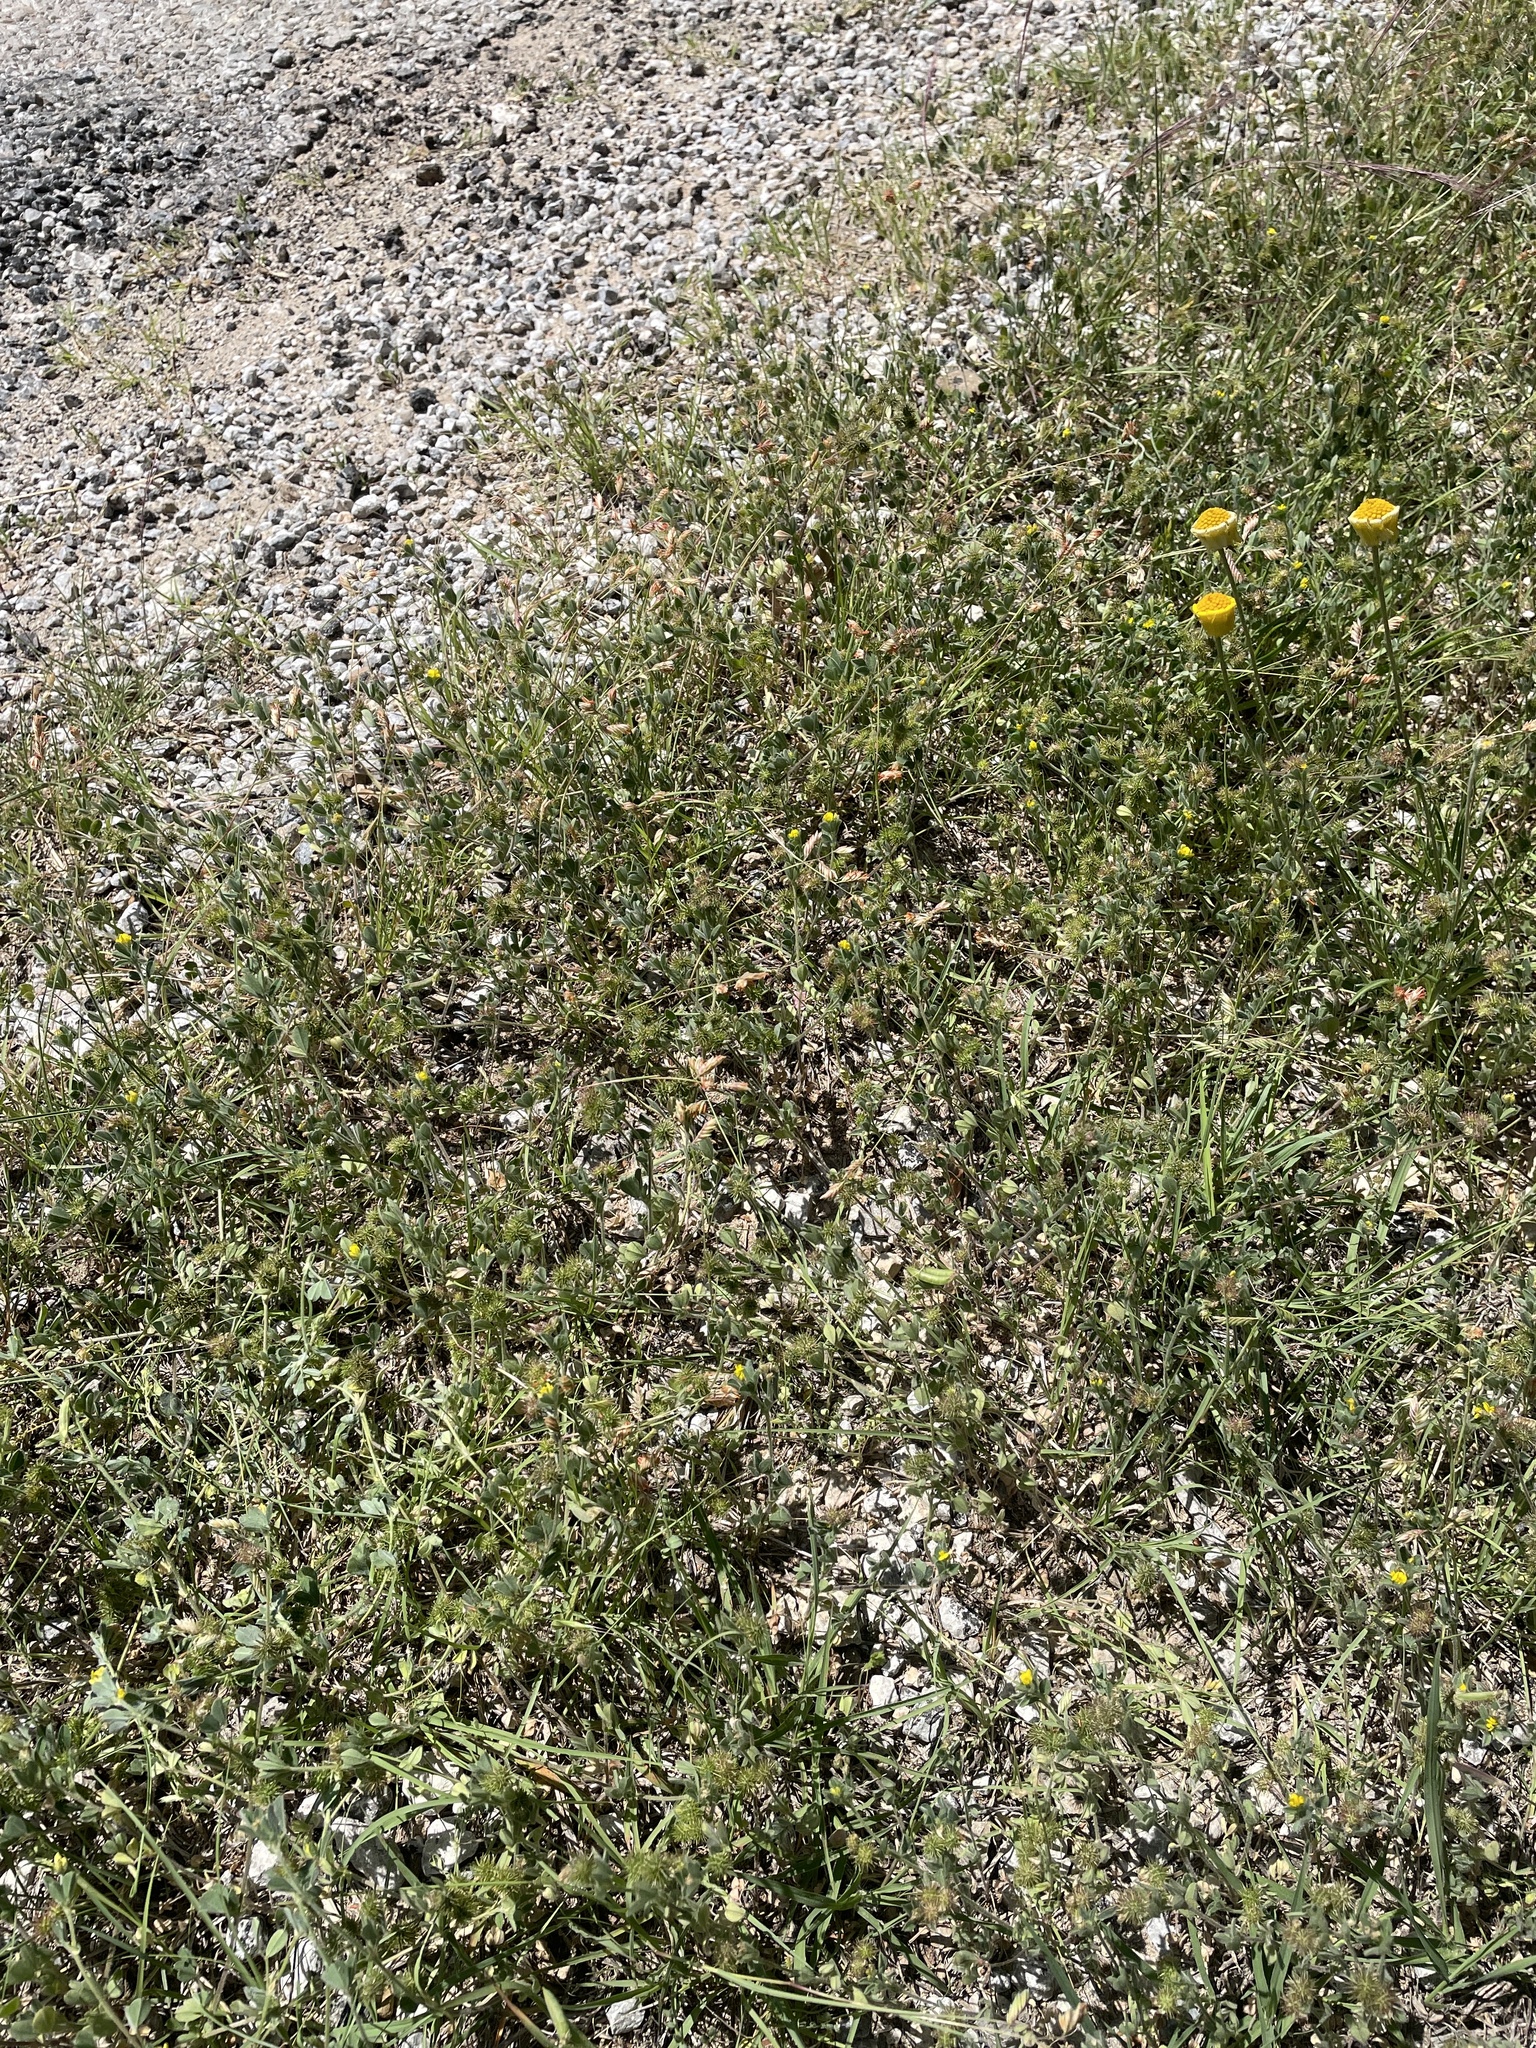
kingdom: Plantae
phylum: Tracheophyta
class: Liliopsida
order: Poales
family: Poaceae
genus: Bouteloua
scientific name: Bouteloua dactyloides
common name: Buffalo grass
